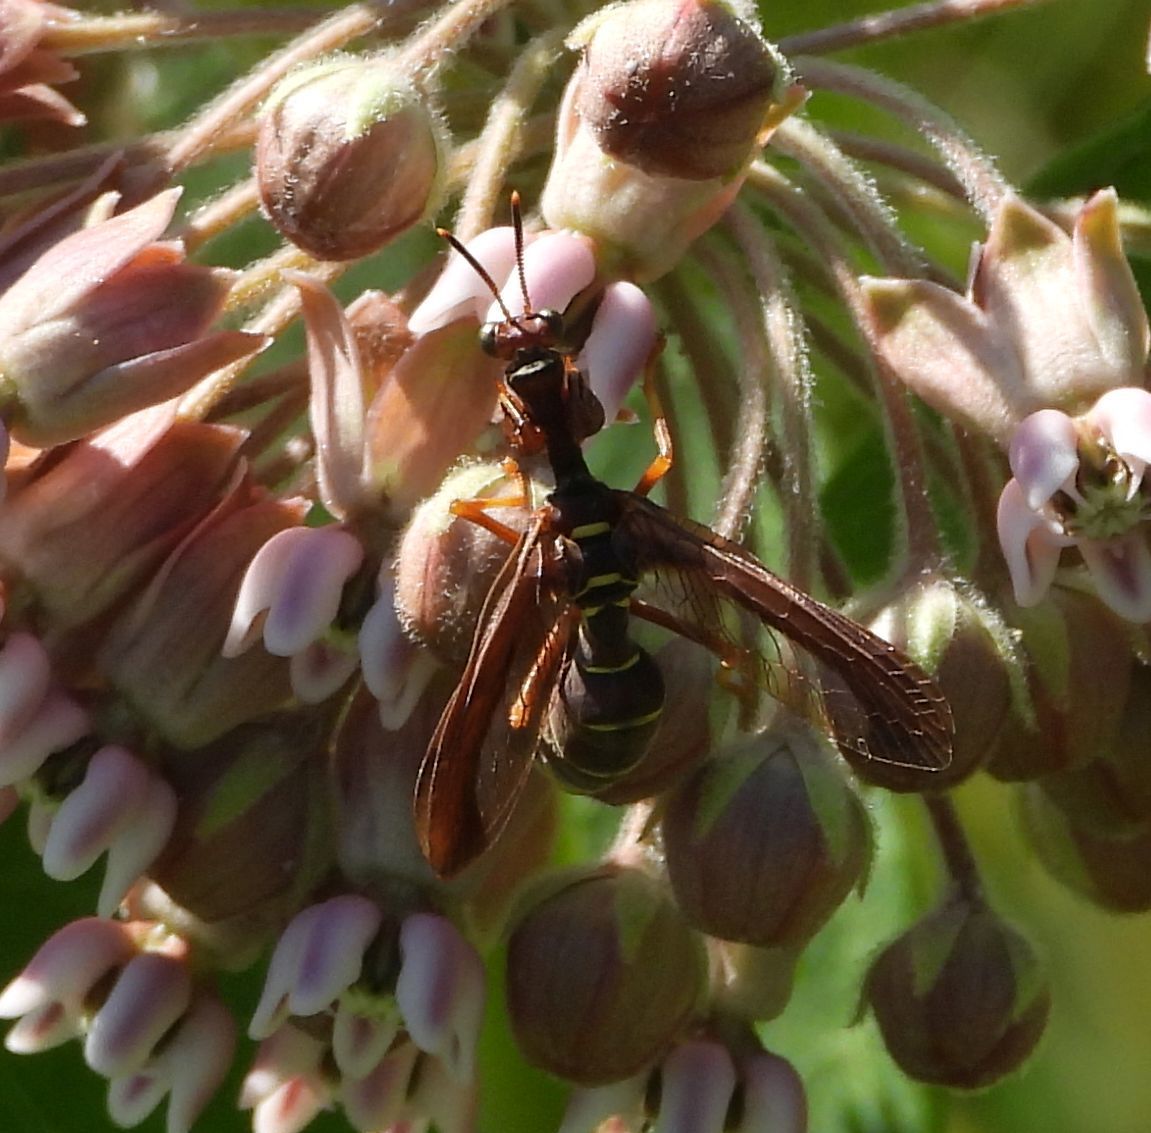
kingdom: Animalia
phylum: Arthropoda
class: Insecta
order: Neuroptera
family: Mantispidae
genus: Climaciella
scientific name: Climaciella brunnea
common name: Brown wasp mantidfly
